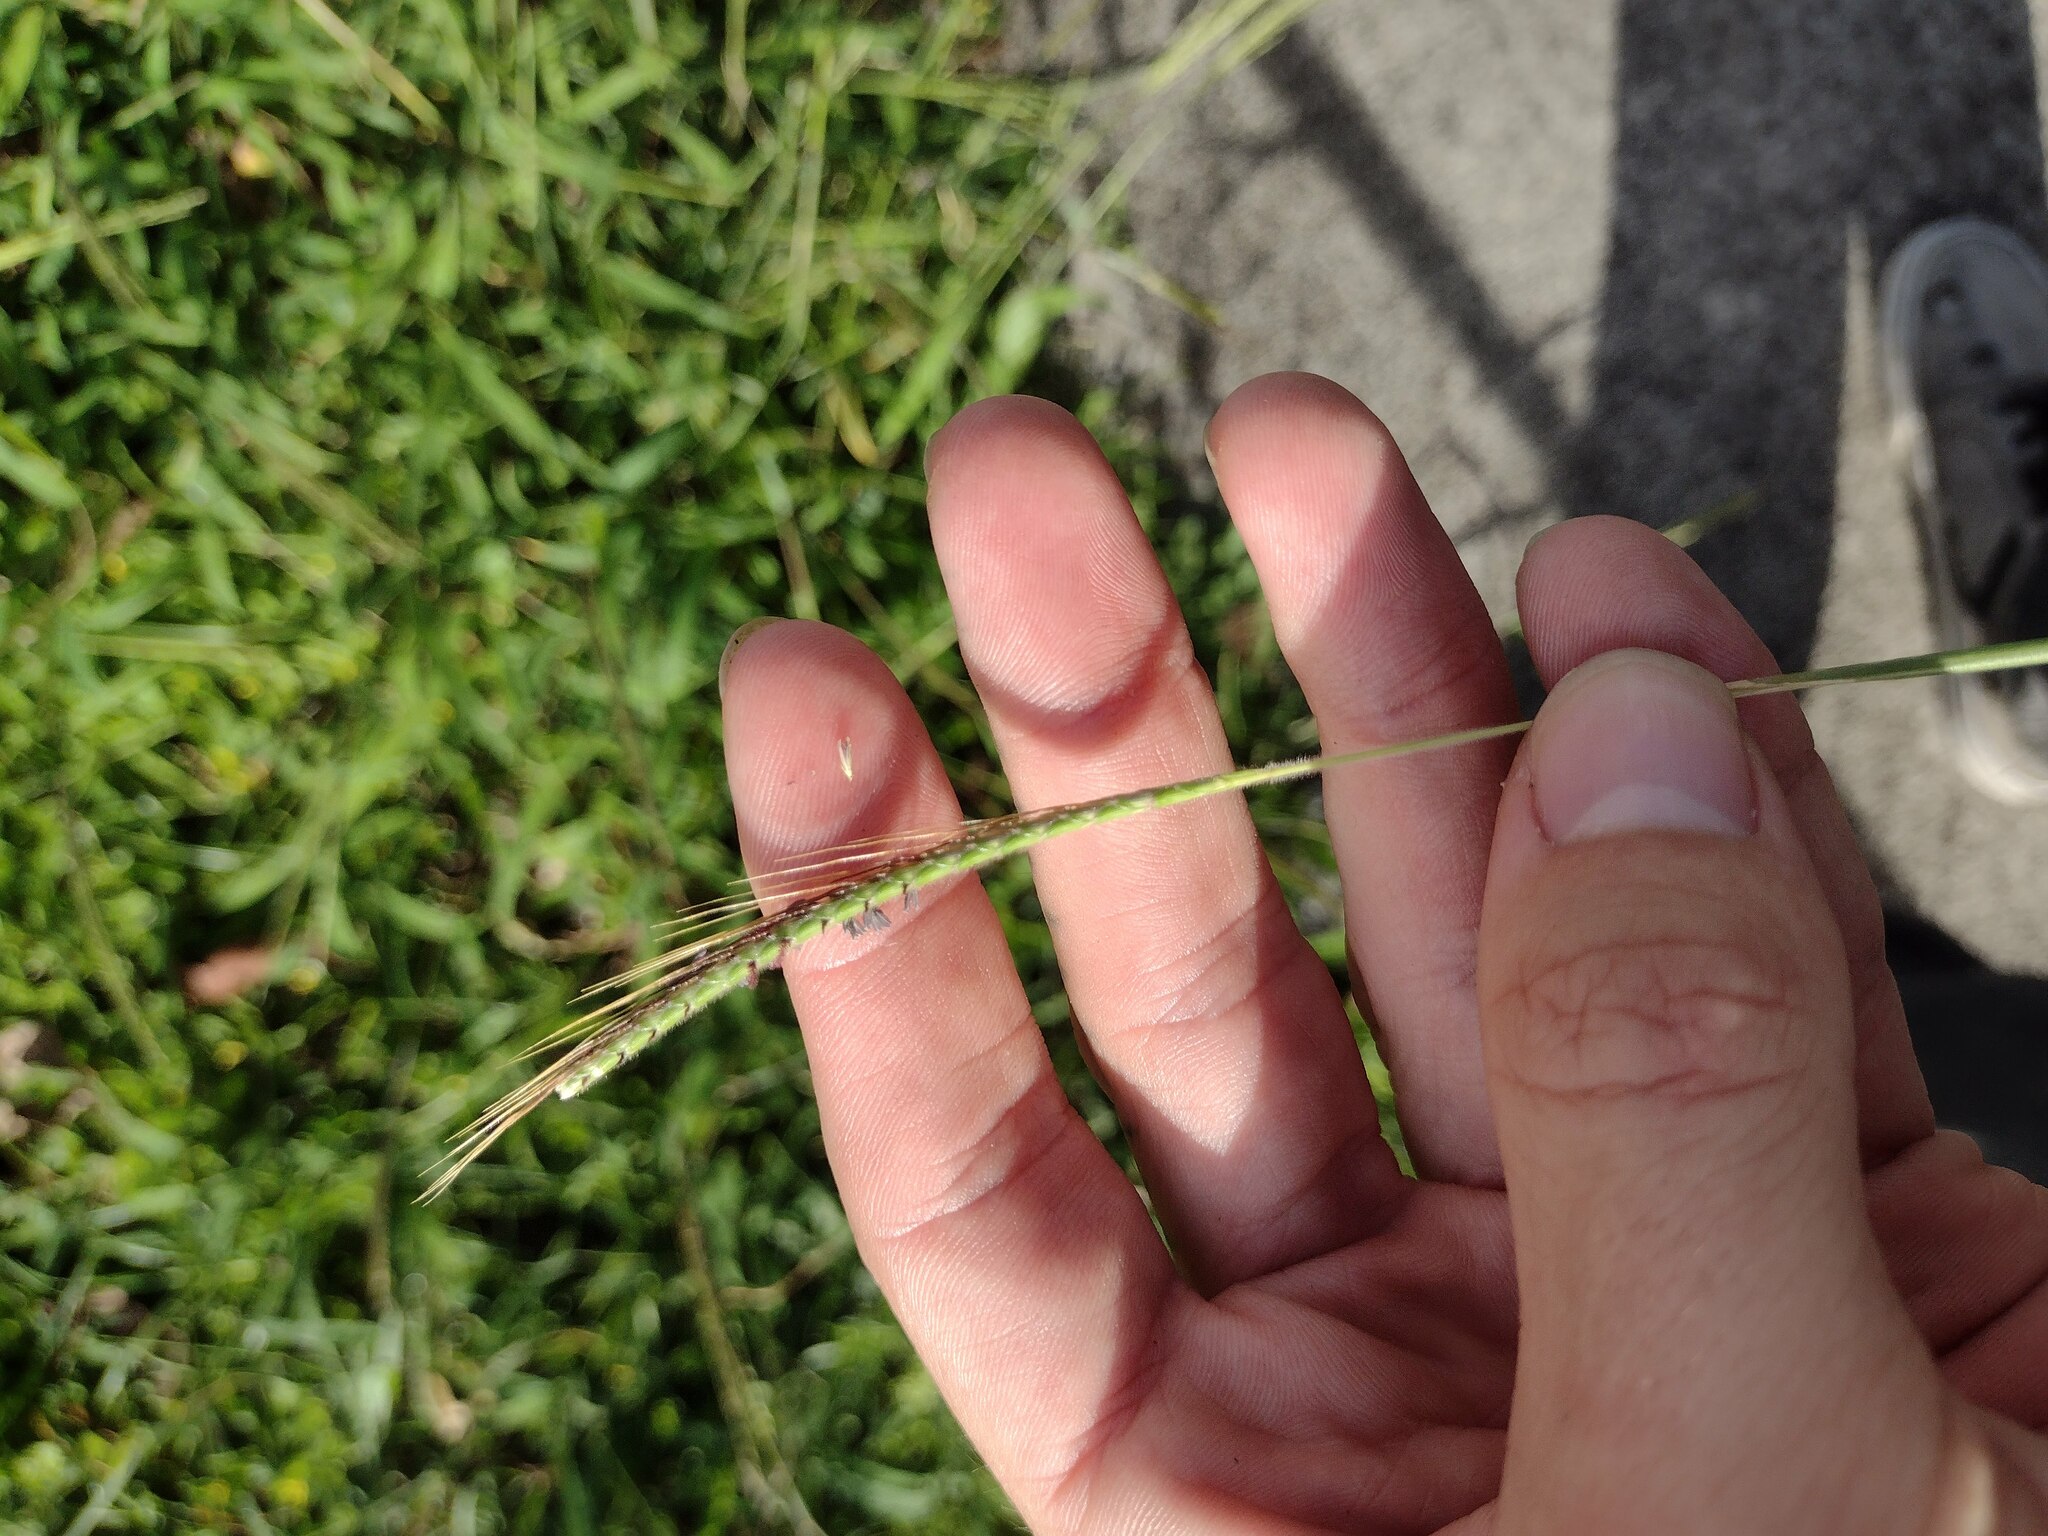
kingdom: Plantae
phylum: Tracheophyta
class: Liliopsida
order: Poales
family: Poaceae
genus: Dichanthium
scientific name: Dichanthium aristatum
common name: Angleton bluestem
